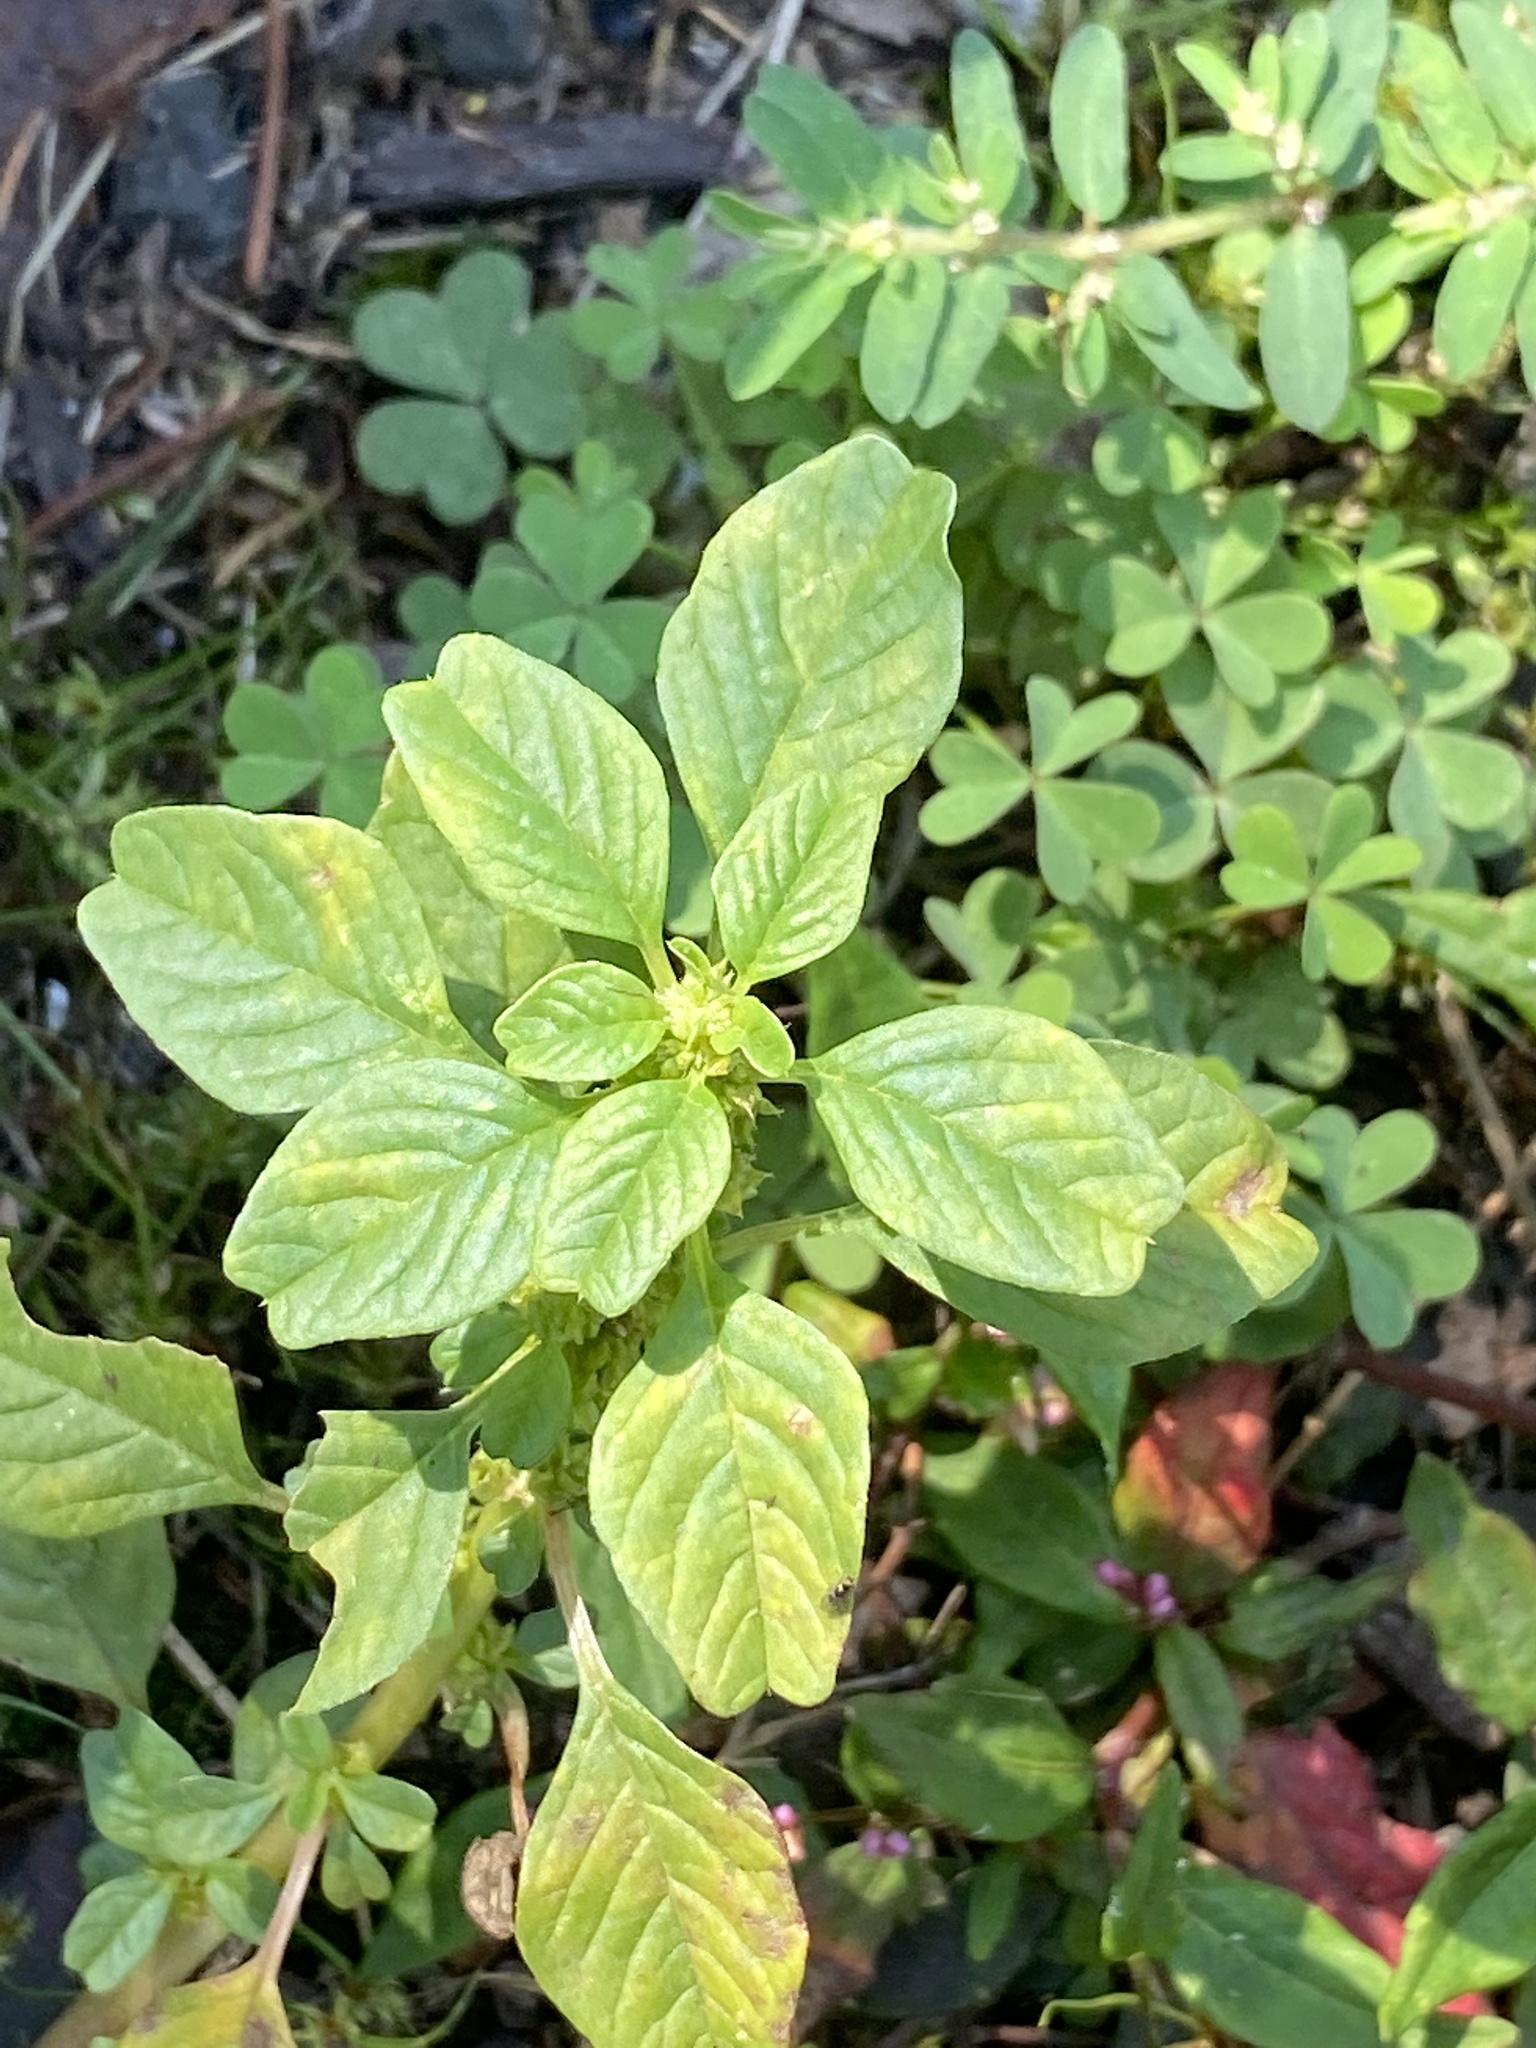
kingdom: Plantae
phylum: Tracheophyta
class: Magnoliopsida
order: Caryophyllales
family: Amaranthaceae
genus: Amaranthus
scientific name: Amaranthus blitum
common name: Purple amaranth
